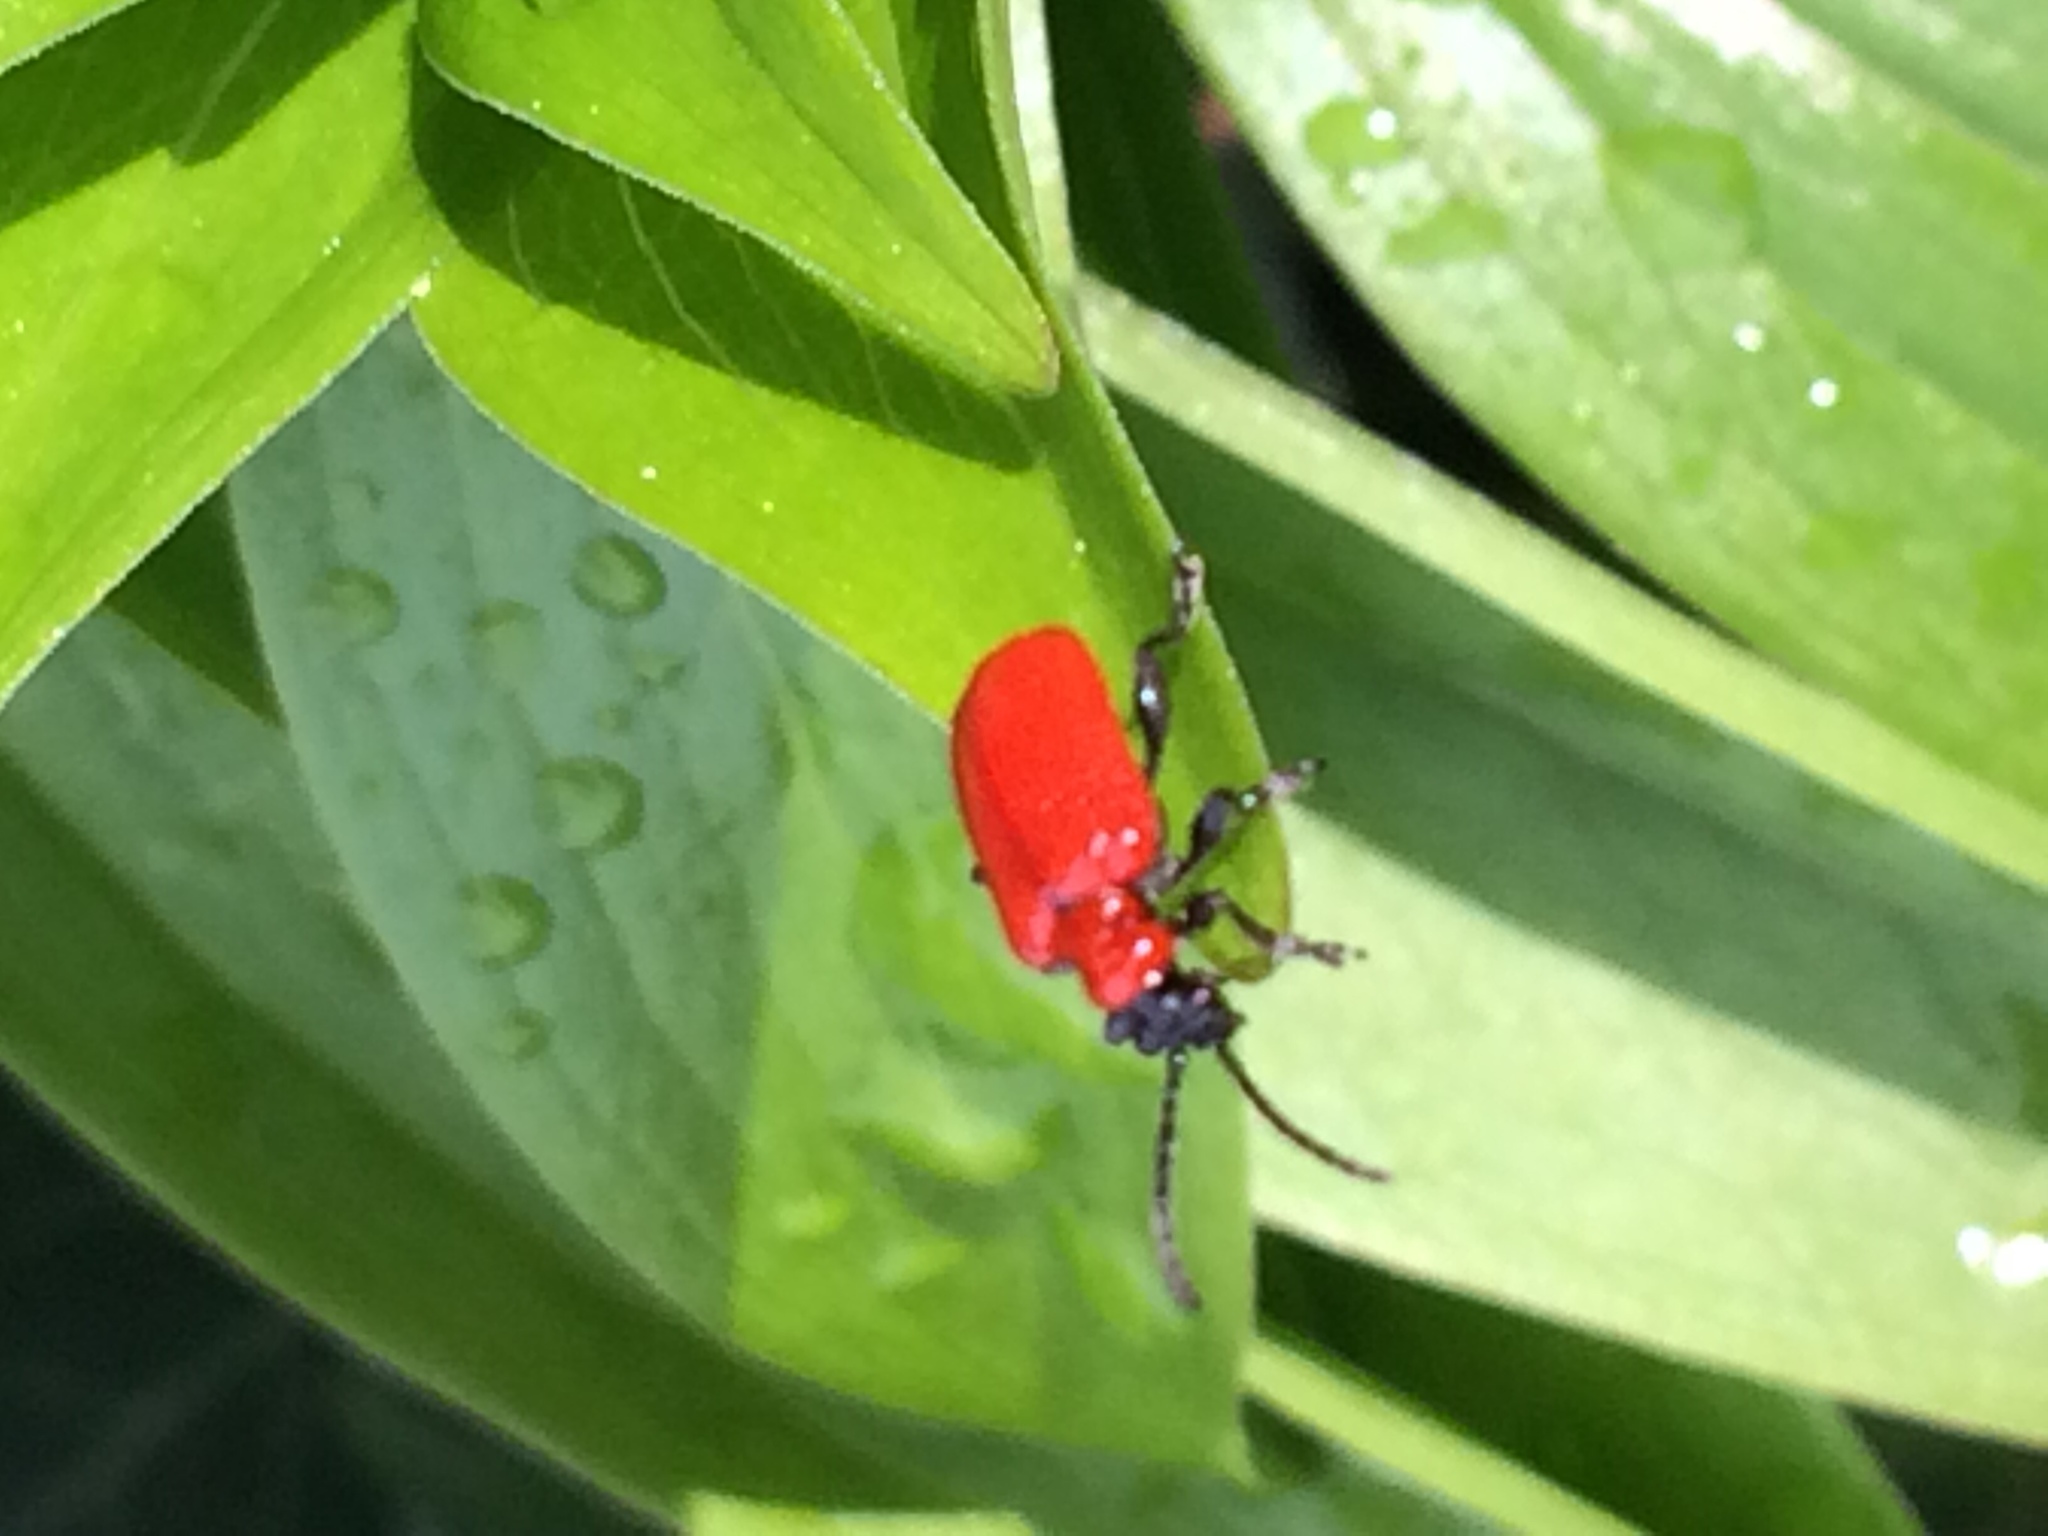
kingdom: Animalia
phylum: Arthropoda
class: Insecta
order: Coleoptera
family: Chrysomelidae
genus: Lilioceris
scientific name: Lilioceris lilii
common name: Lily beetle
